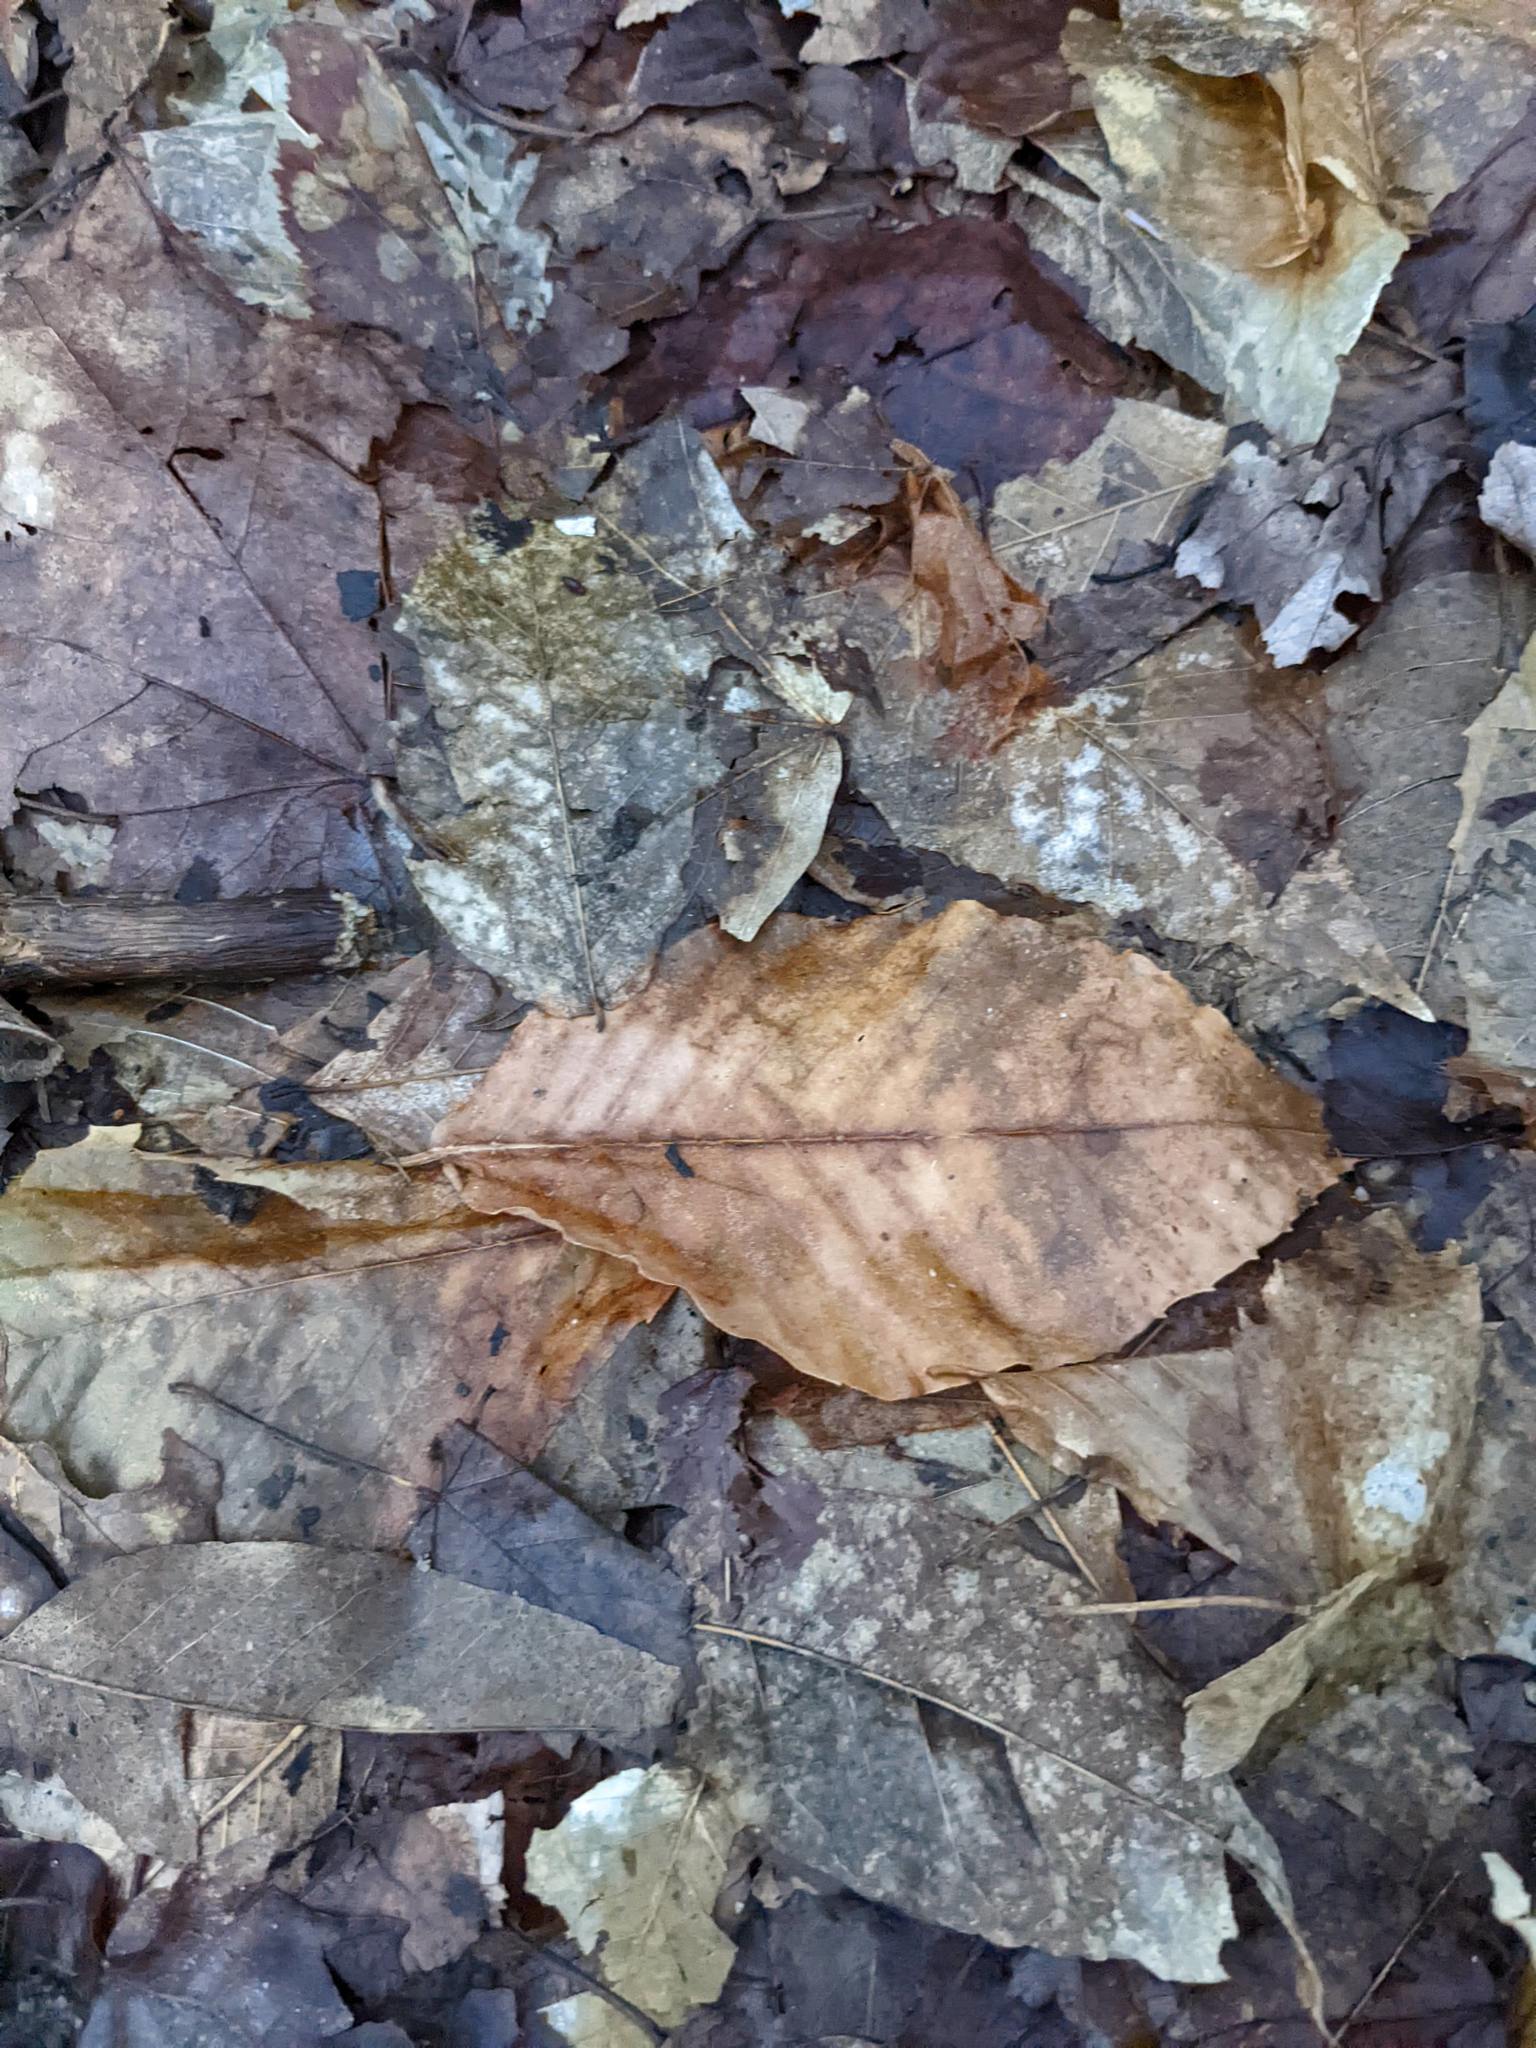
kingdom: Plantae
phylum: Tracheophyta
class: Magnoliopsida
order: Fagales
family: Fagaceae
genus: Fagus
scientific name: Fagus grandifolia
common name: American beech
